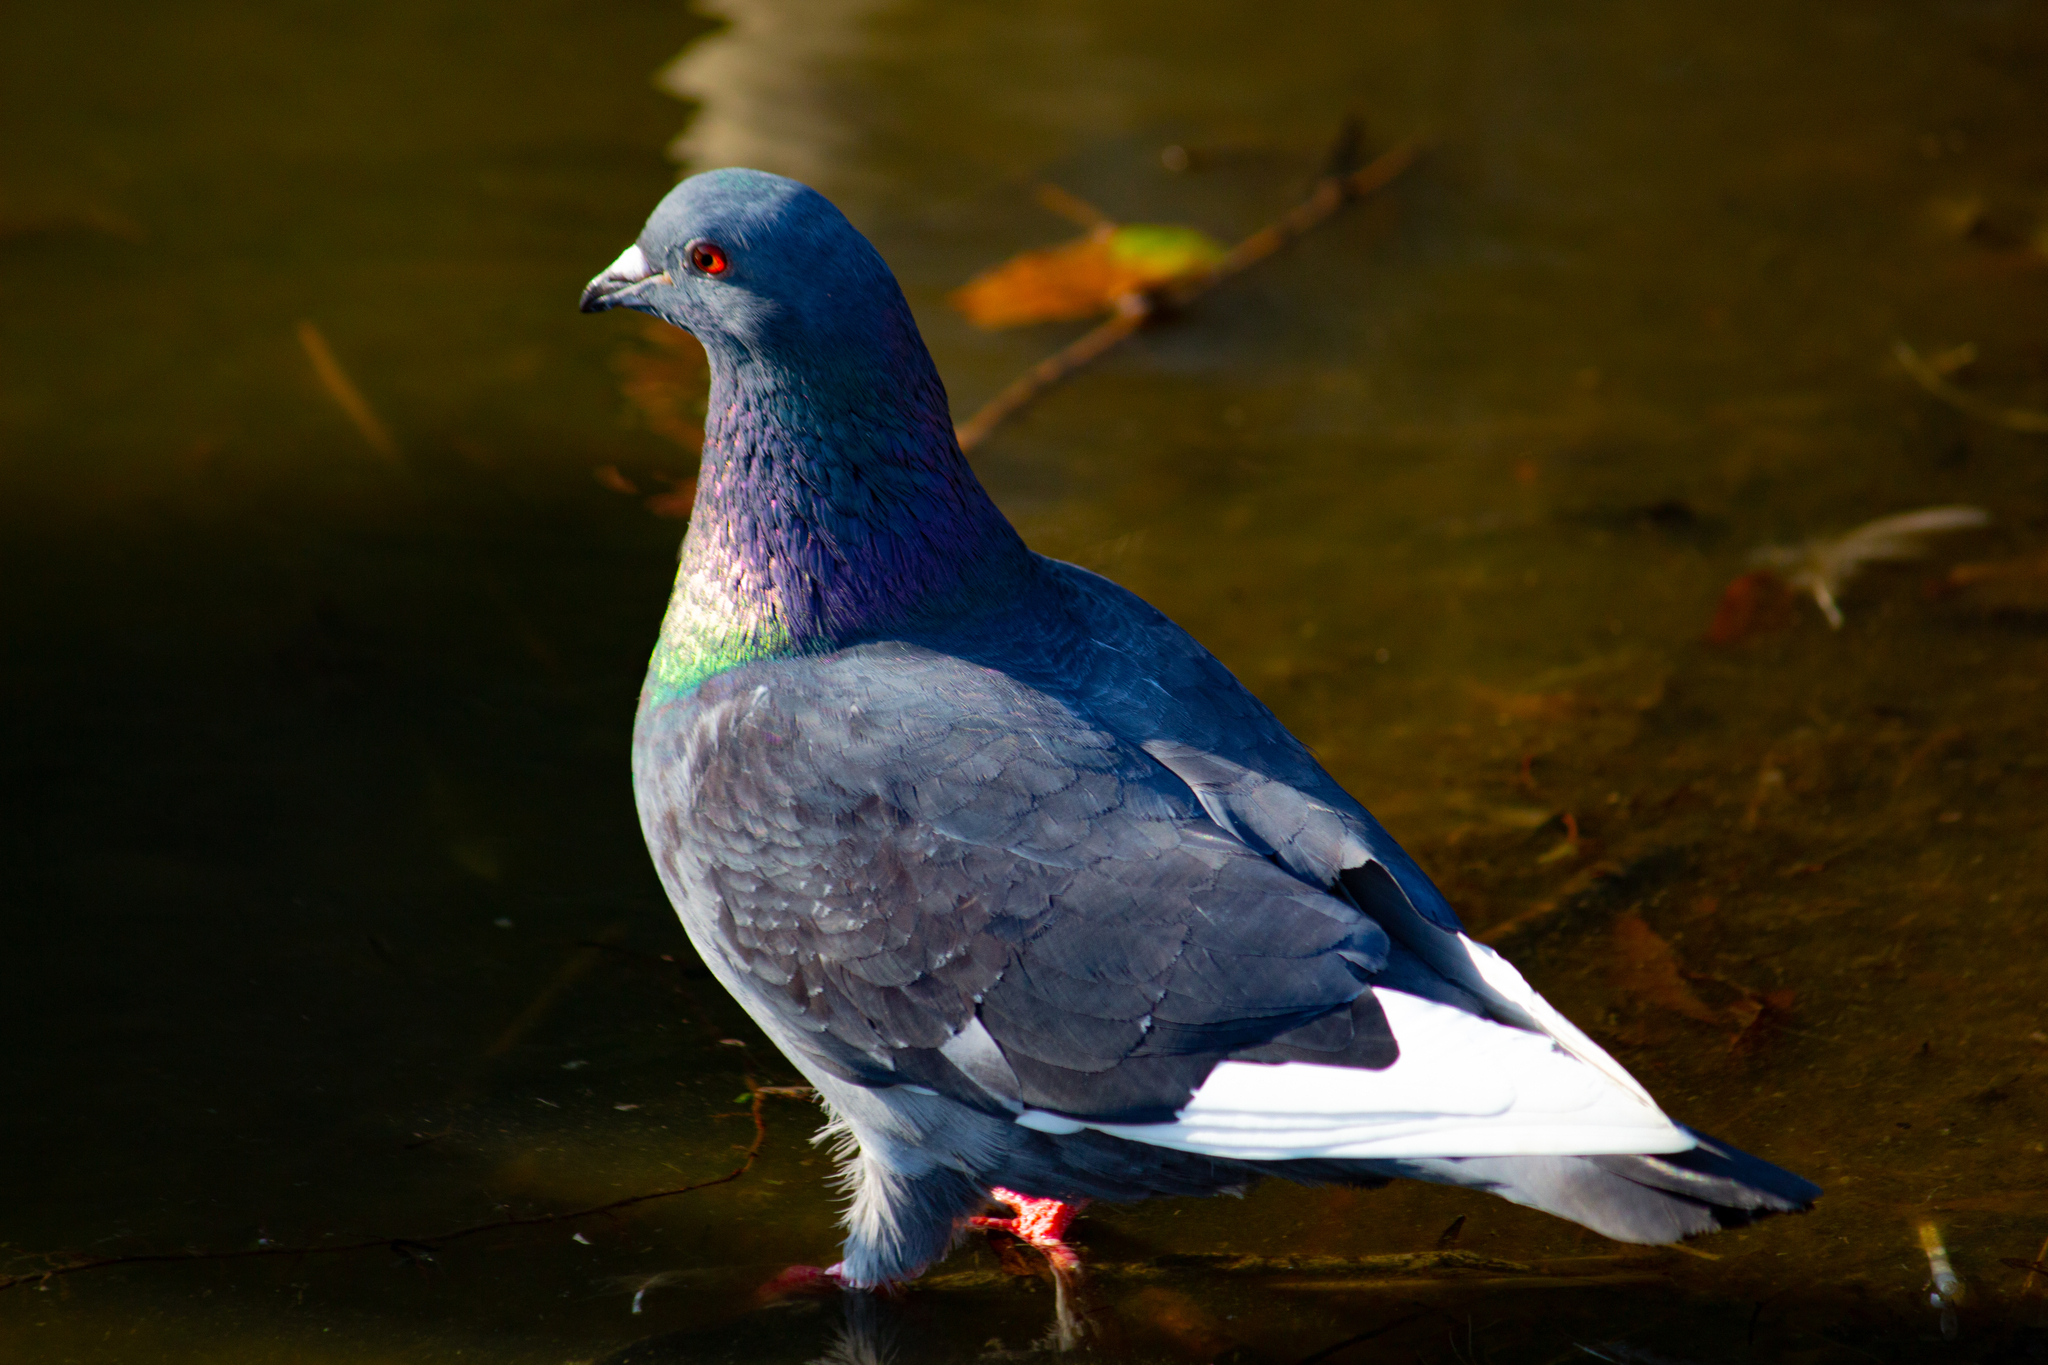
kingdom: Animalia
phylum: Chordata
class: Aves
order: Columbiformes
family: Columbidae
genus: Columba
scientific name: Columba livia
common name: Rock pigeon
